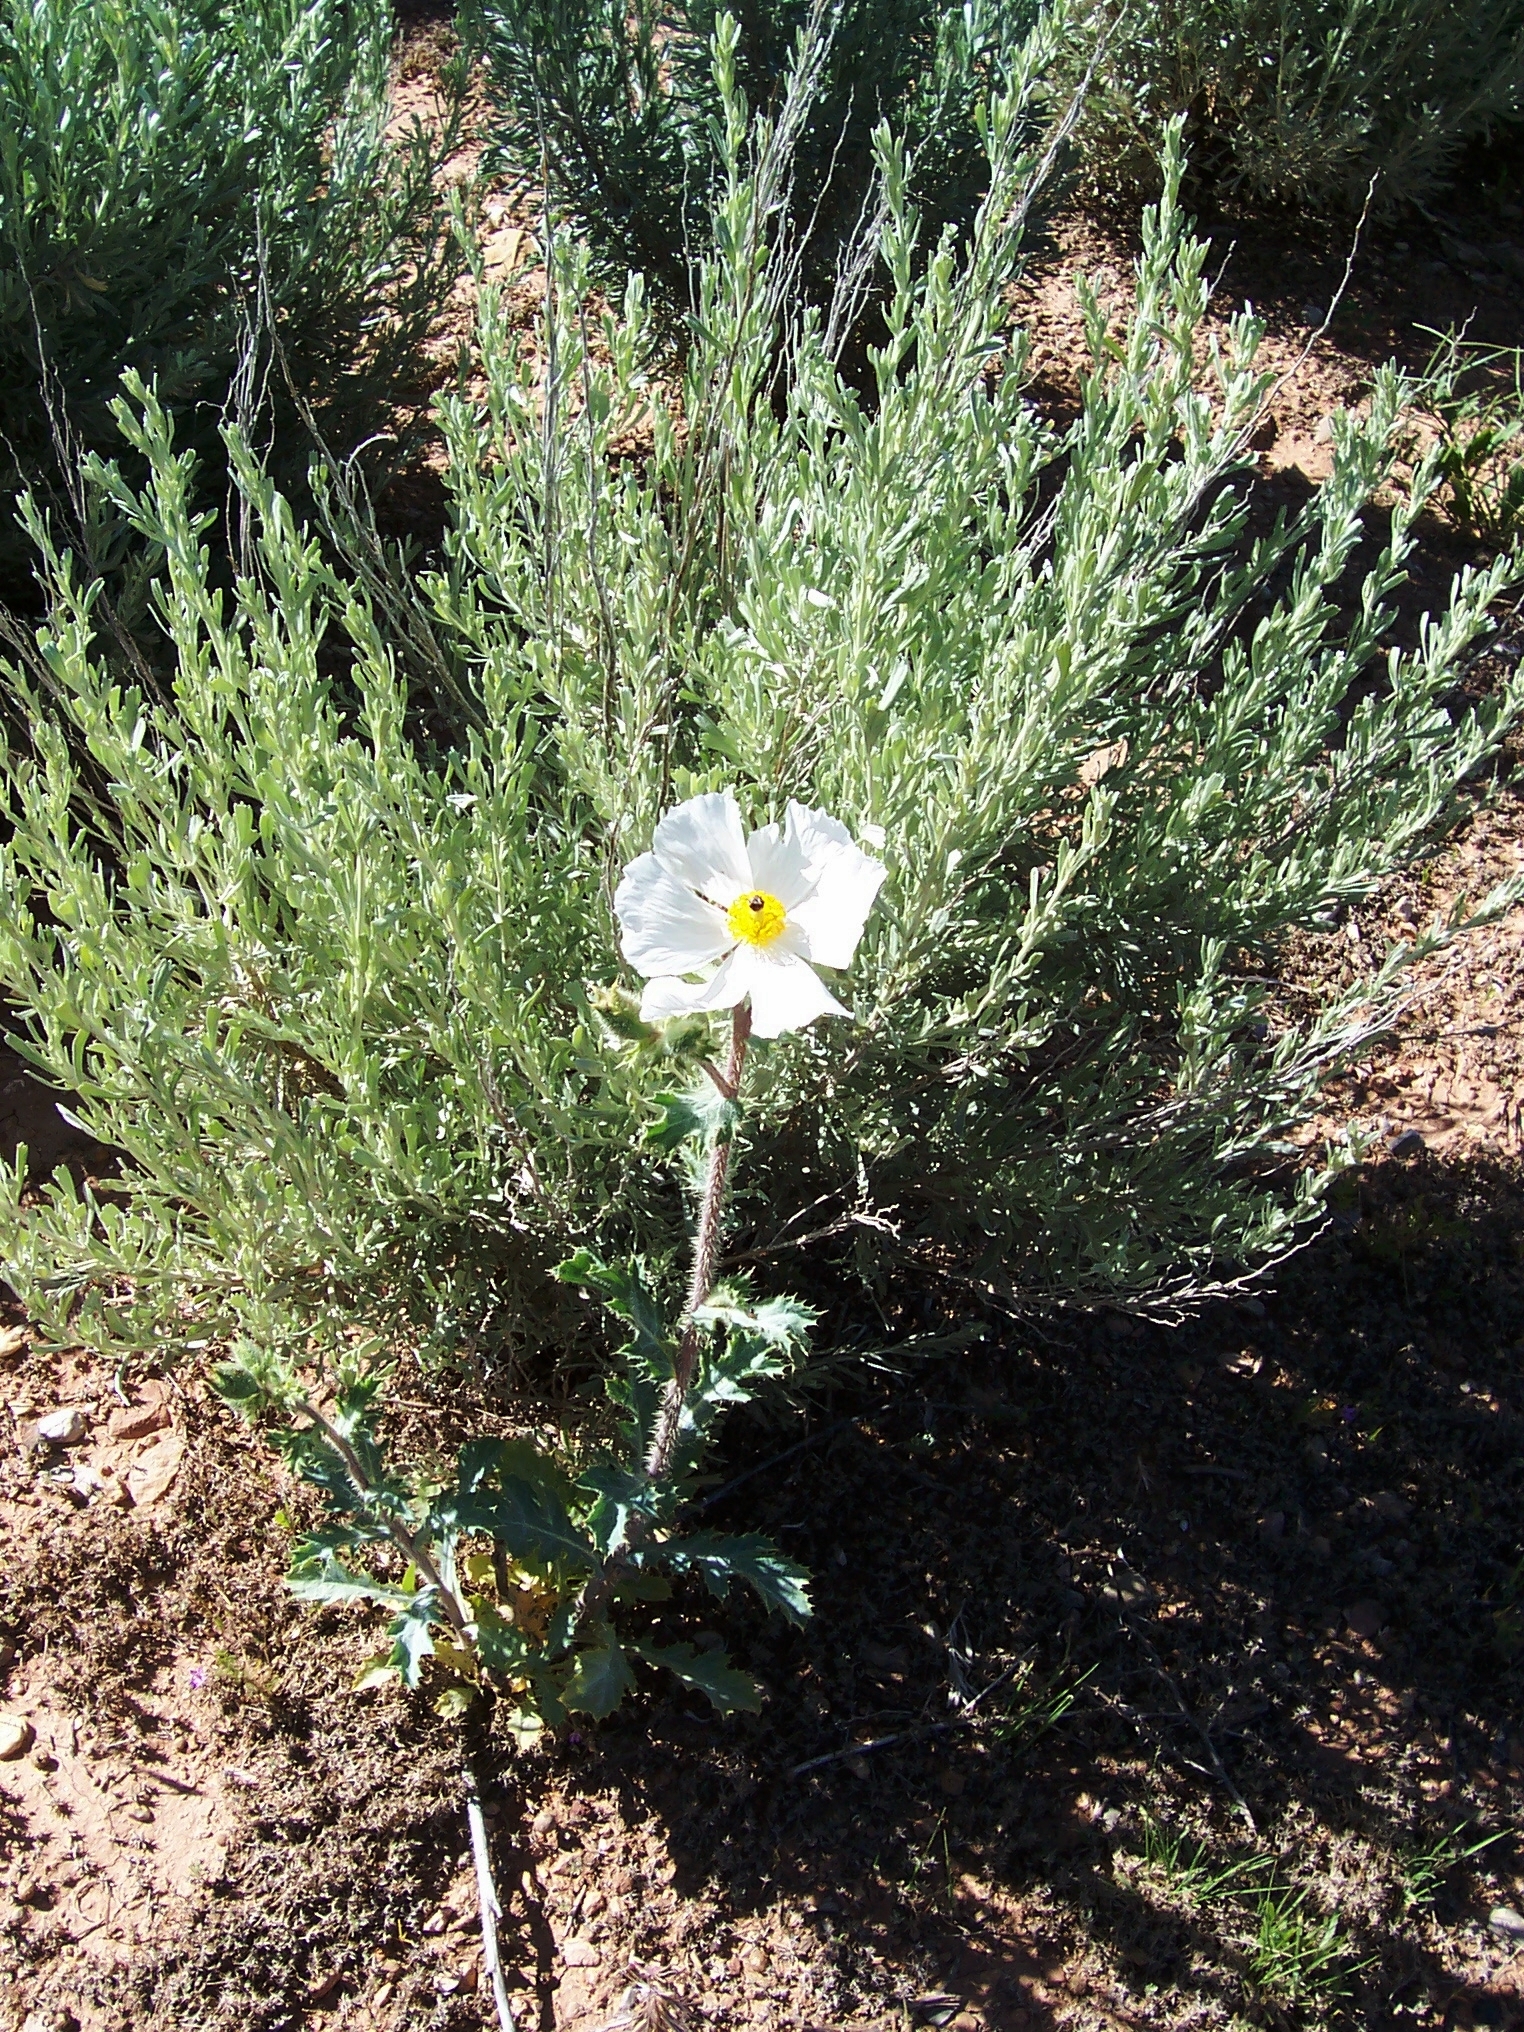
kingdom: Plantae
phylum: Tracheophyta
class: Magnoliopsida
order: Ranunculales
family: Papaveraceae
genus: Argemone
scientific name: Argemone munita
